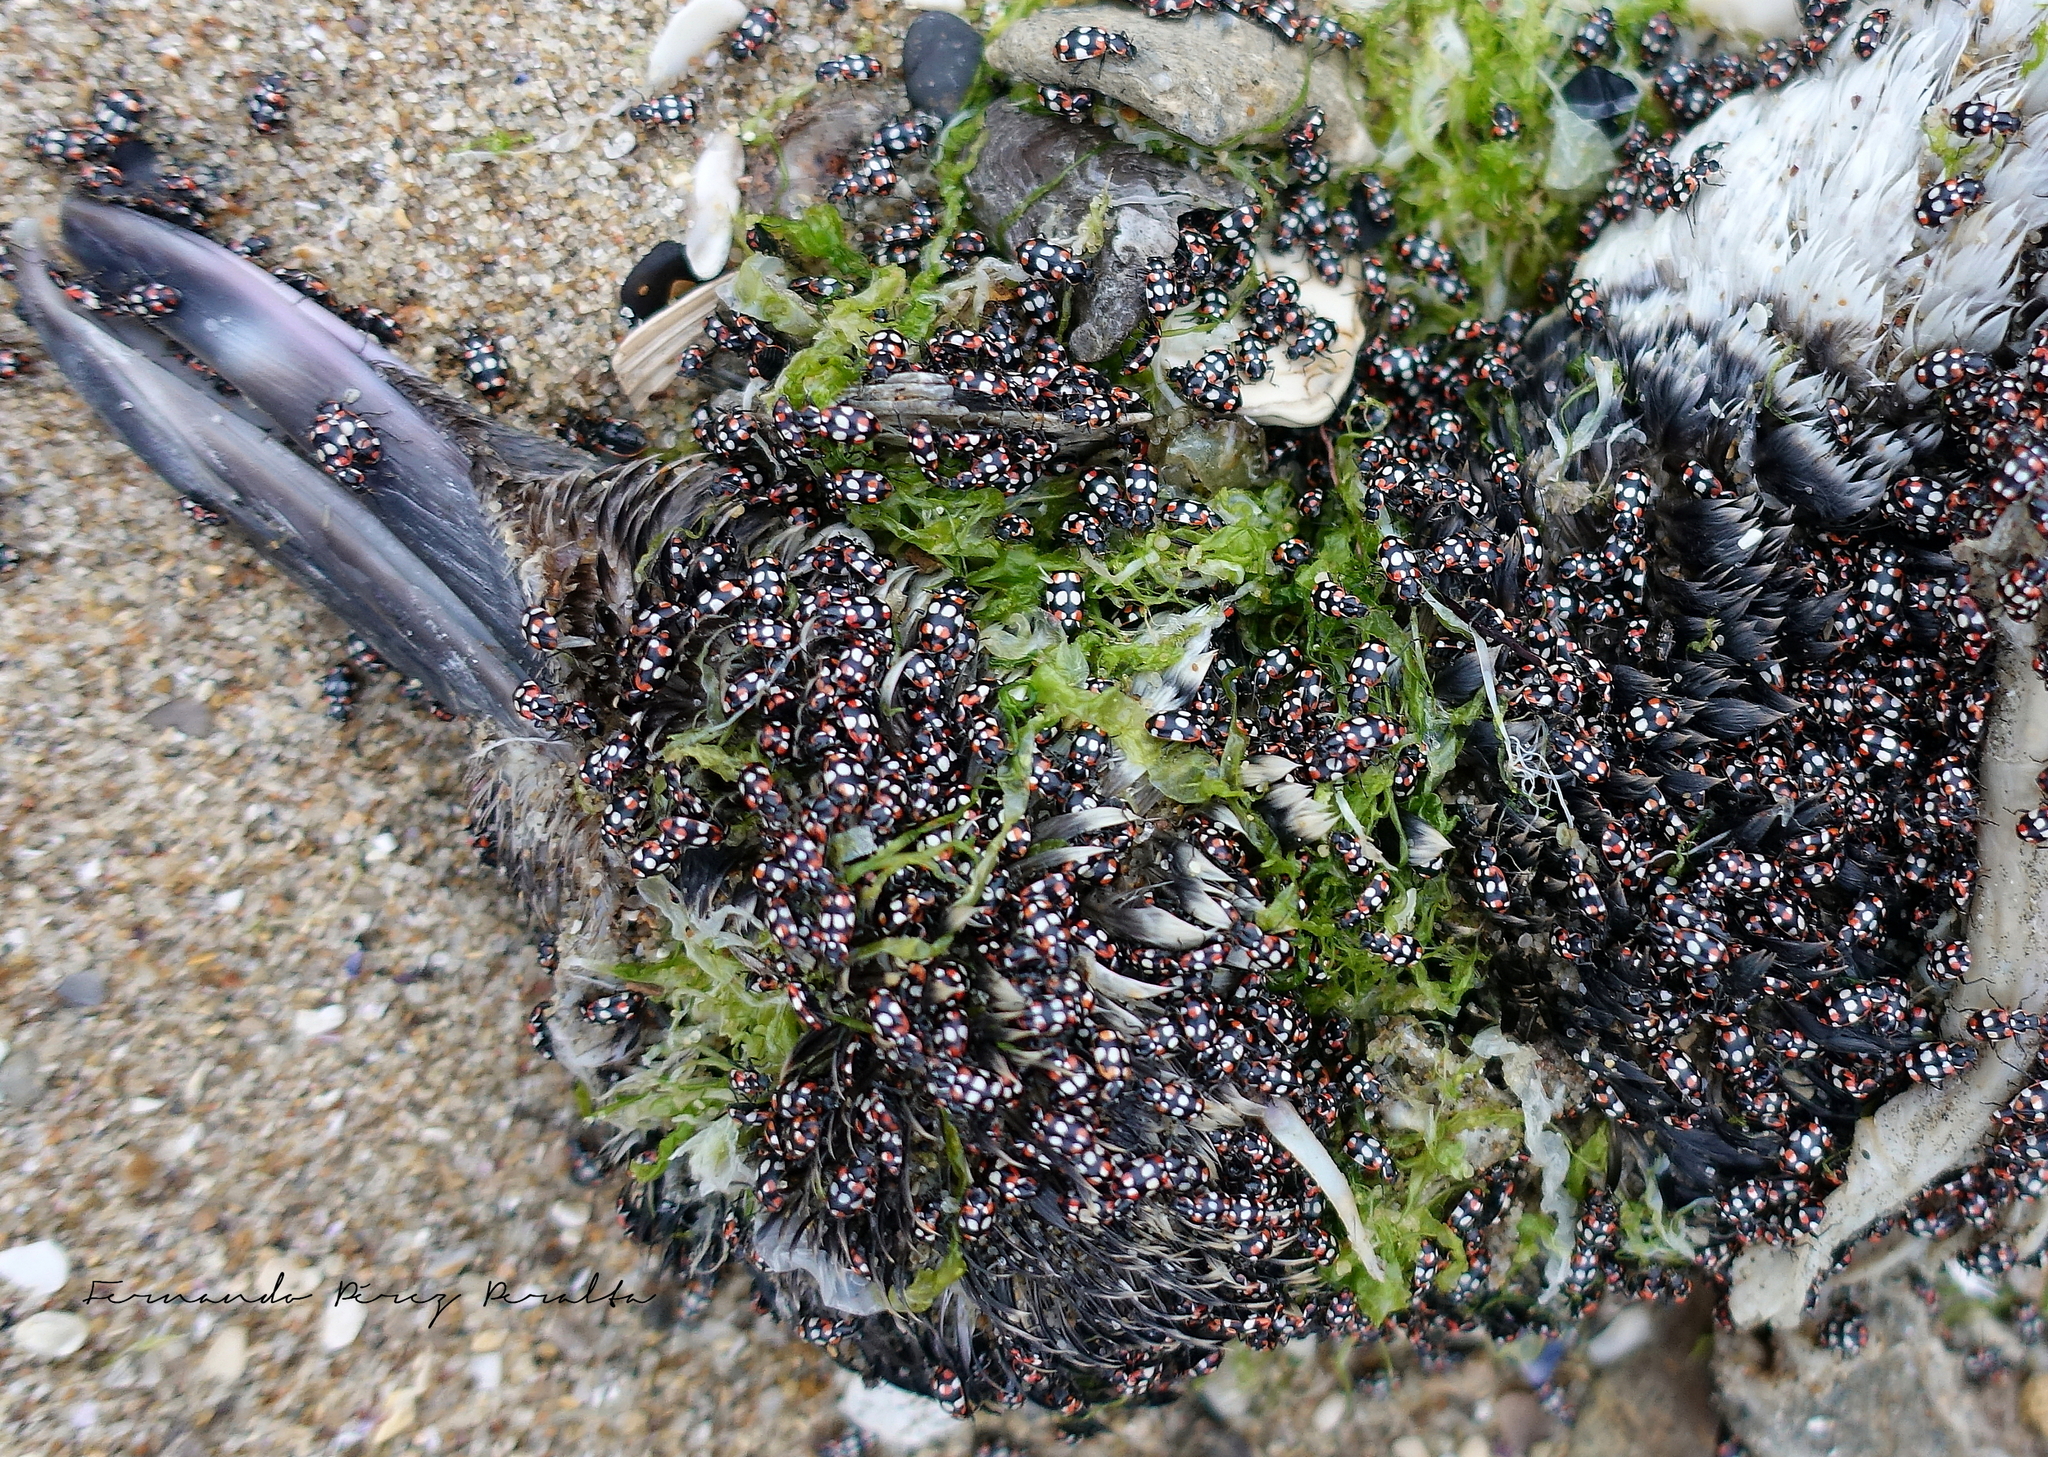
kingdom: Animalia
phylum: Arthropoda
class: Insecta
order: Coleoptera
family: Coccinellidae
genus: Eriopis
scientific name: Eriopis connexa
